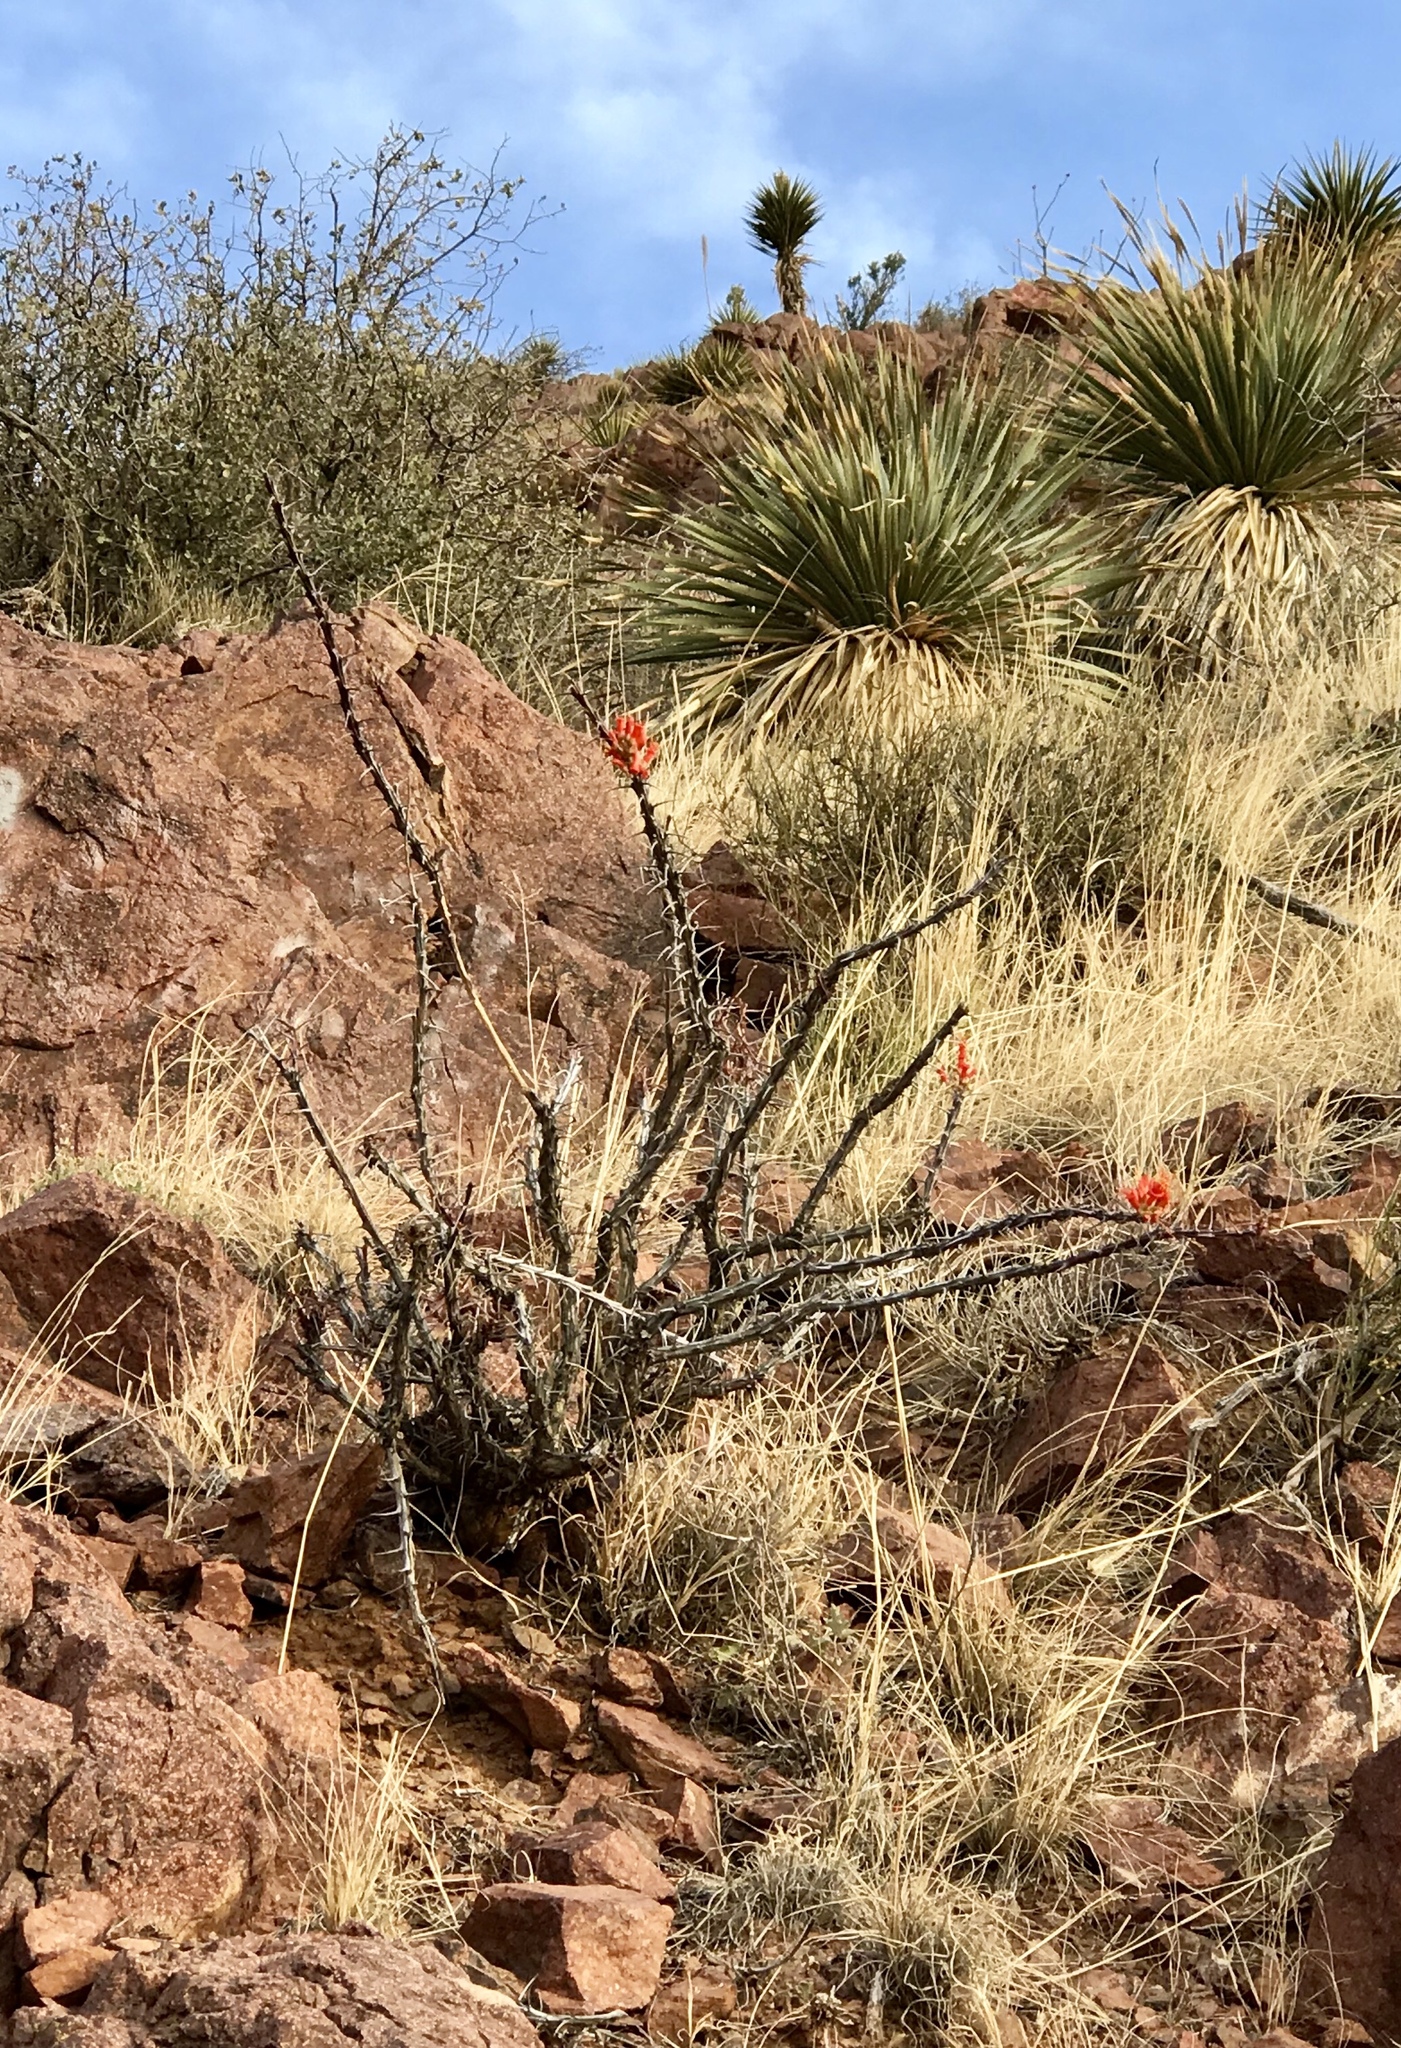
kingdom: Plantae
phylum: Tracheophyta
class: Magnoliopsida
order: Ericales
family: Fouquieriaceae
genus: Fouquieria
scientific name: Fouquieria splendens
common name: Vine-cactus
